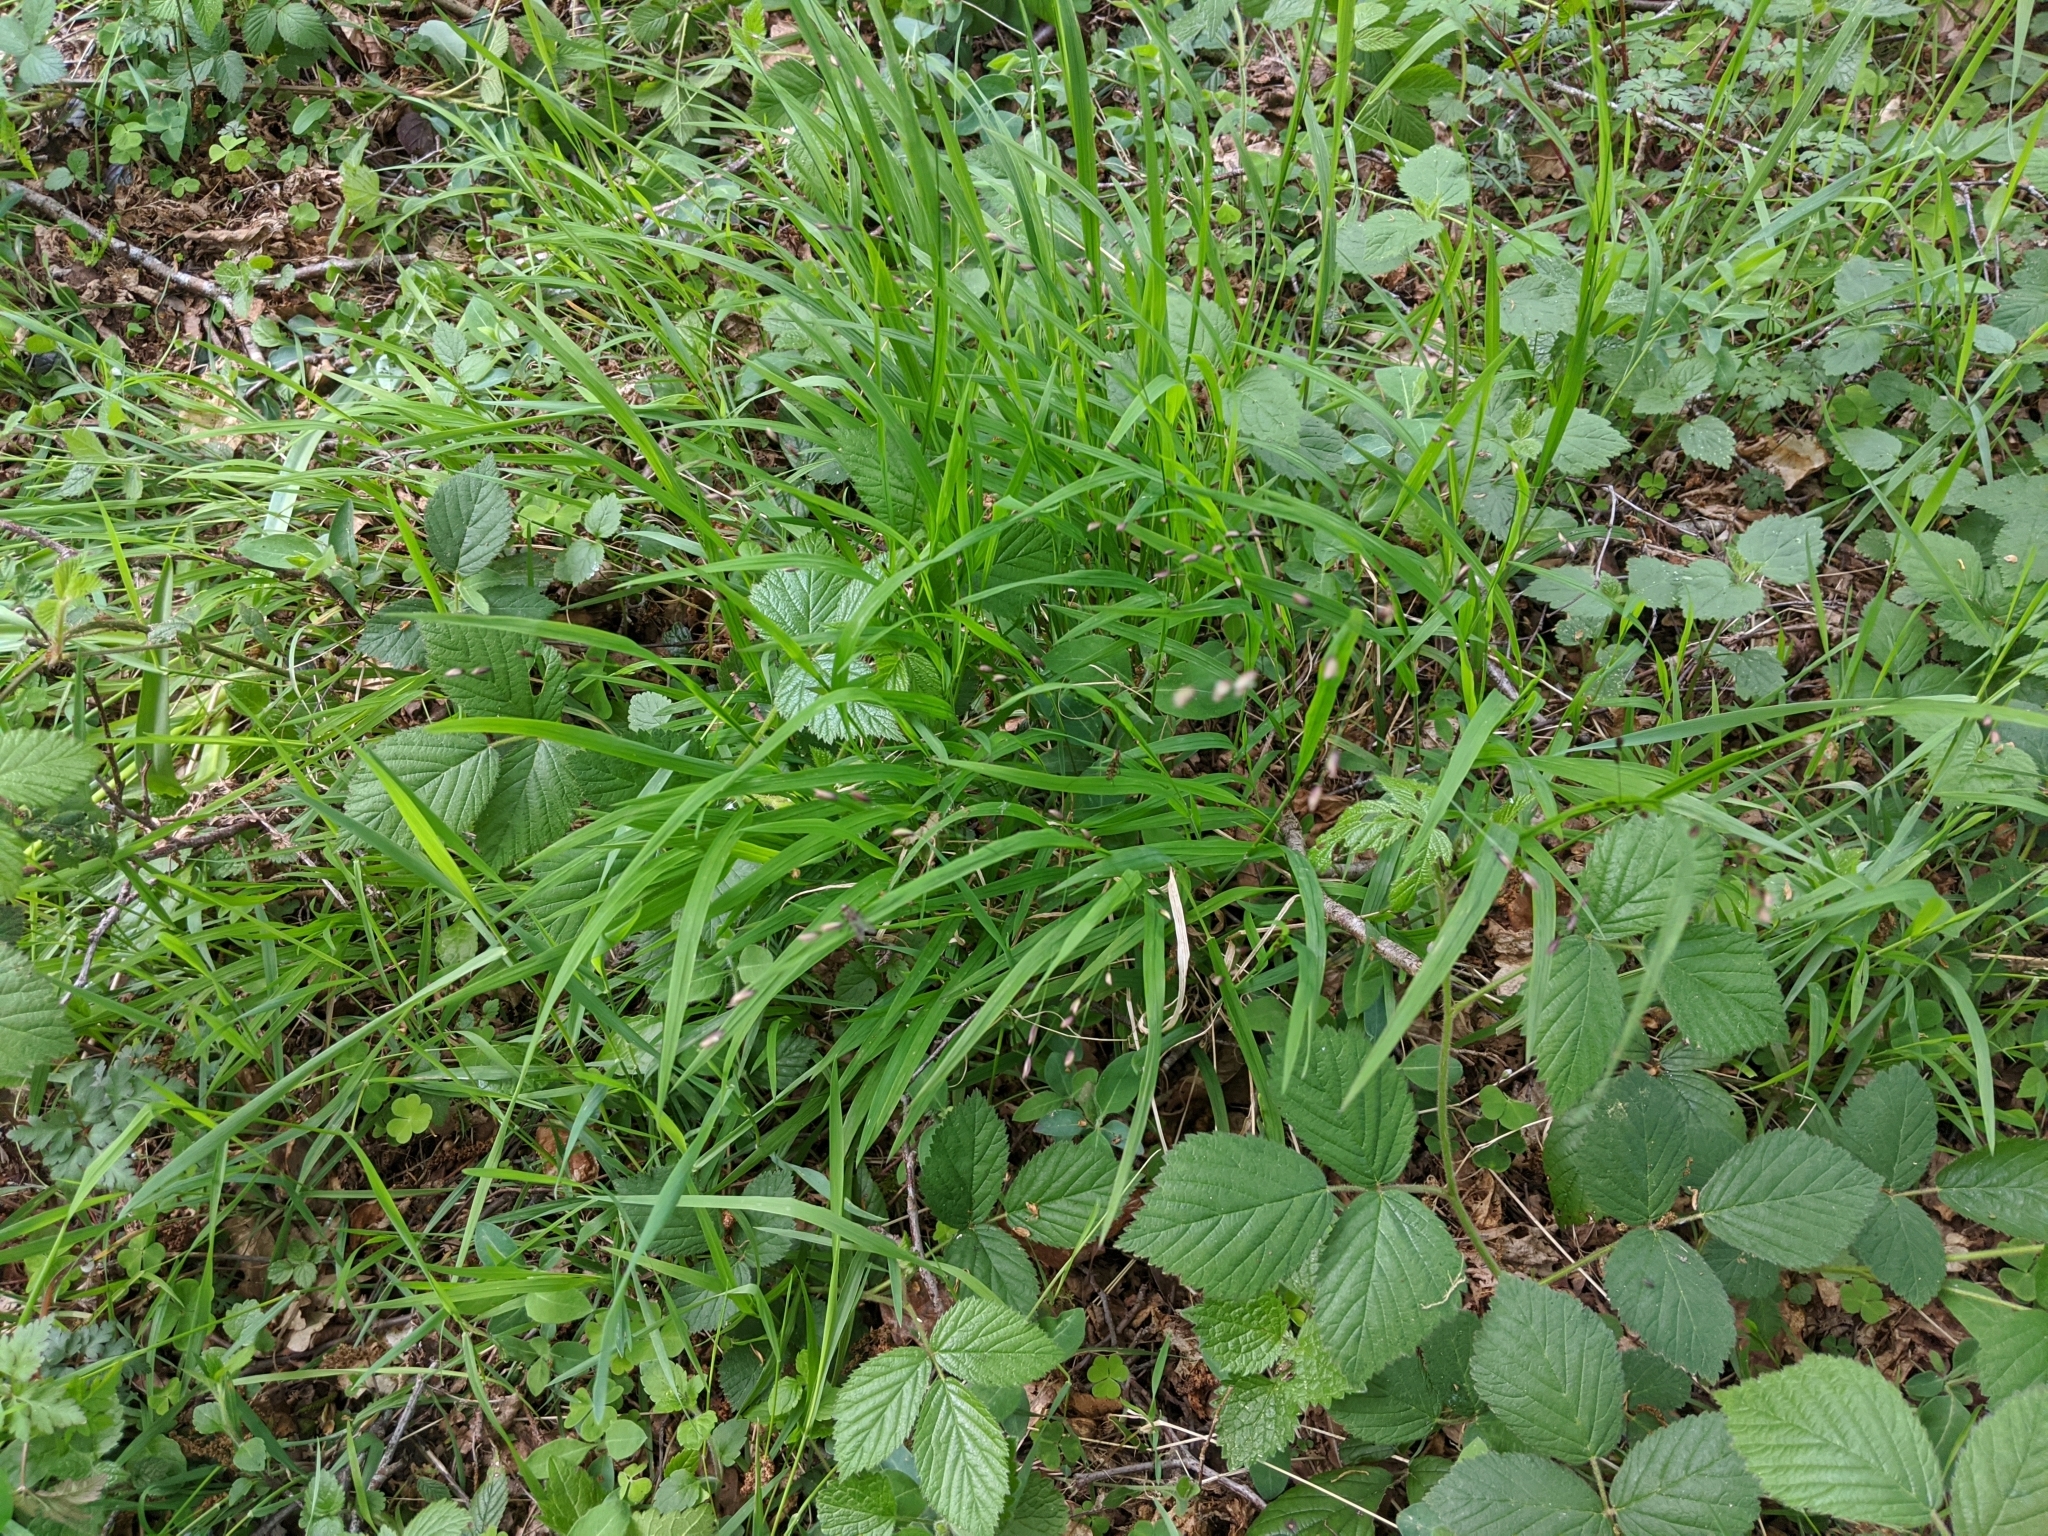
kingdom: Plantae
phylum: Tracheophyta
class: Liliopsida
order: Poales
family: Poaceae
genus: Melica
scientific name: Melica uniflora
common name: Wood melick
